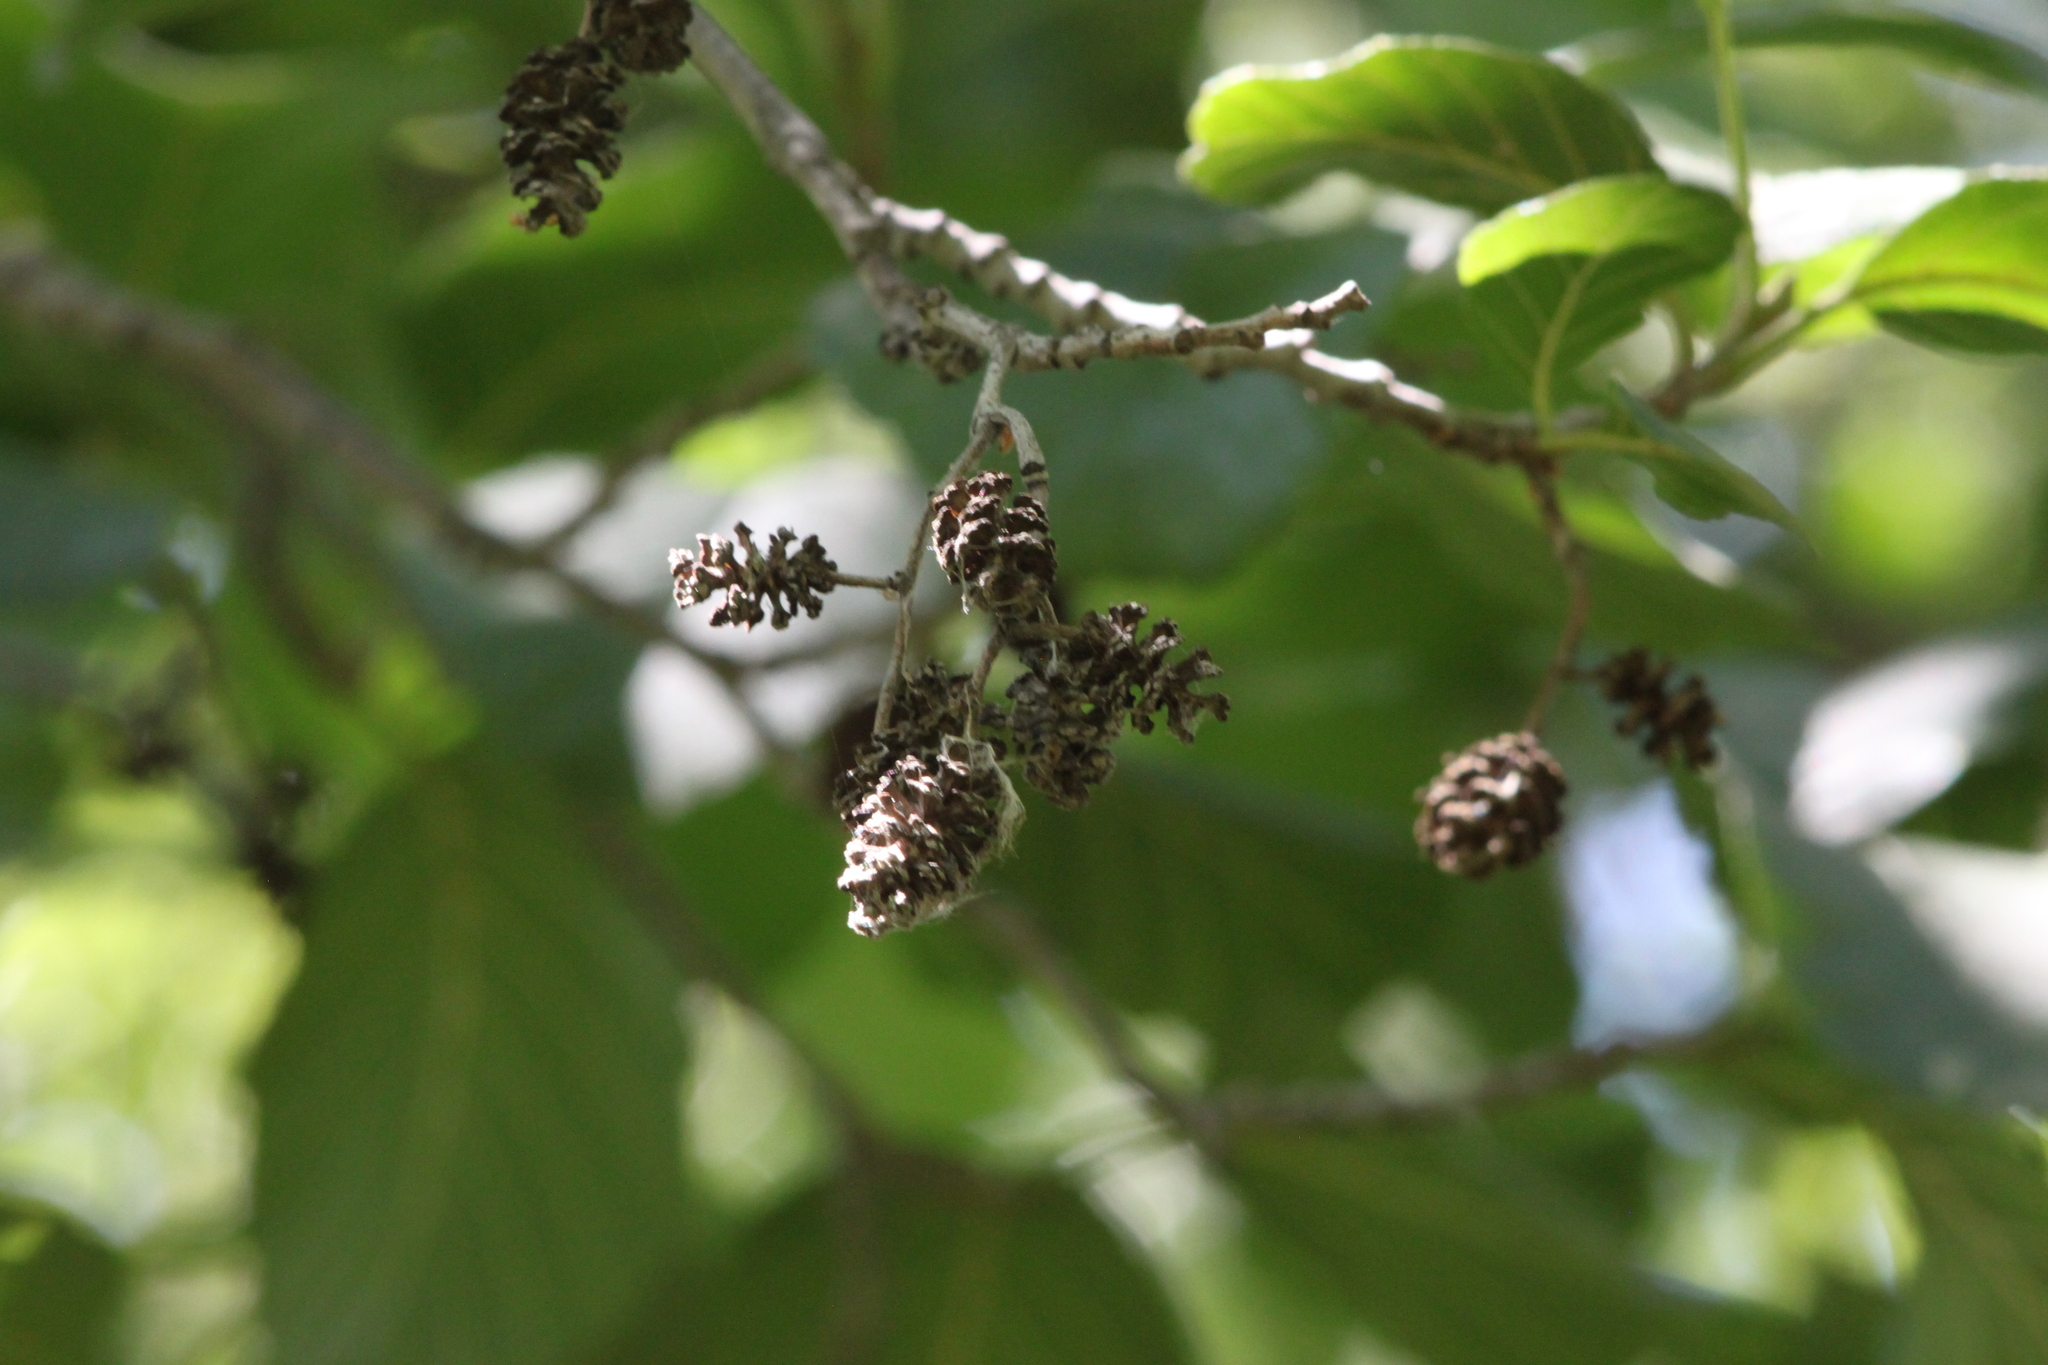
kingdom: Plantae
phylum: Tracheophyta
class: Magnoliopsida
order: Fagales
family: Betulaceae
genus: Alnus
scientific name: Alnus glutinosa
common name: Black alder
